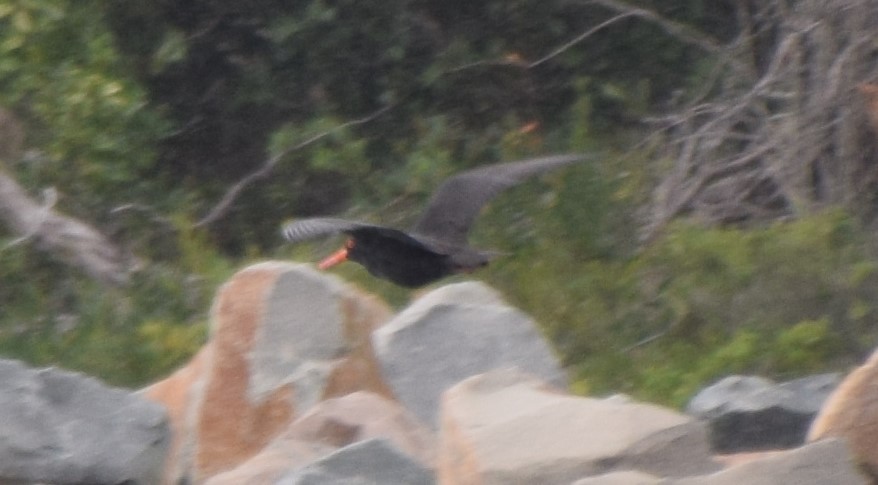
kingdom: Animalia
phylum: Chordata
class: Aves
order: Charadriiformes
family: Haematopodidae
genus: Haematopus
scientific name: Haematopus fuliginosus
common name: Sooty oystercatcher
